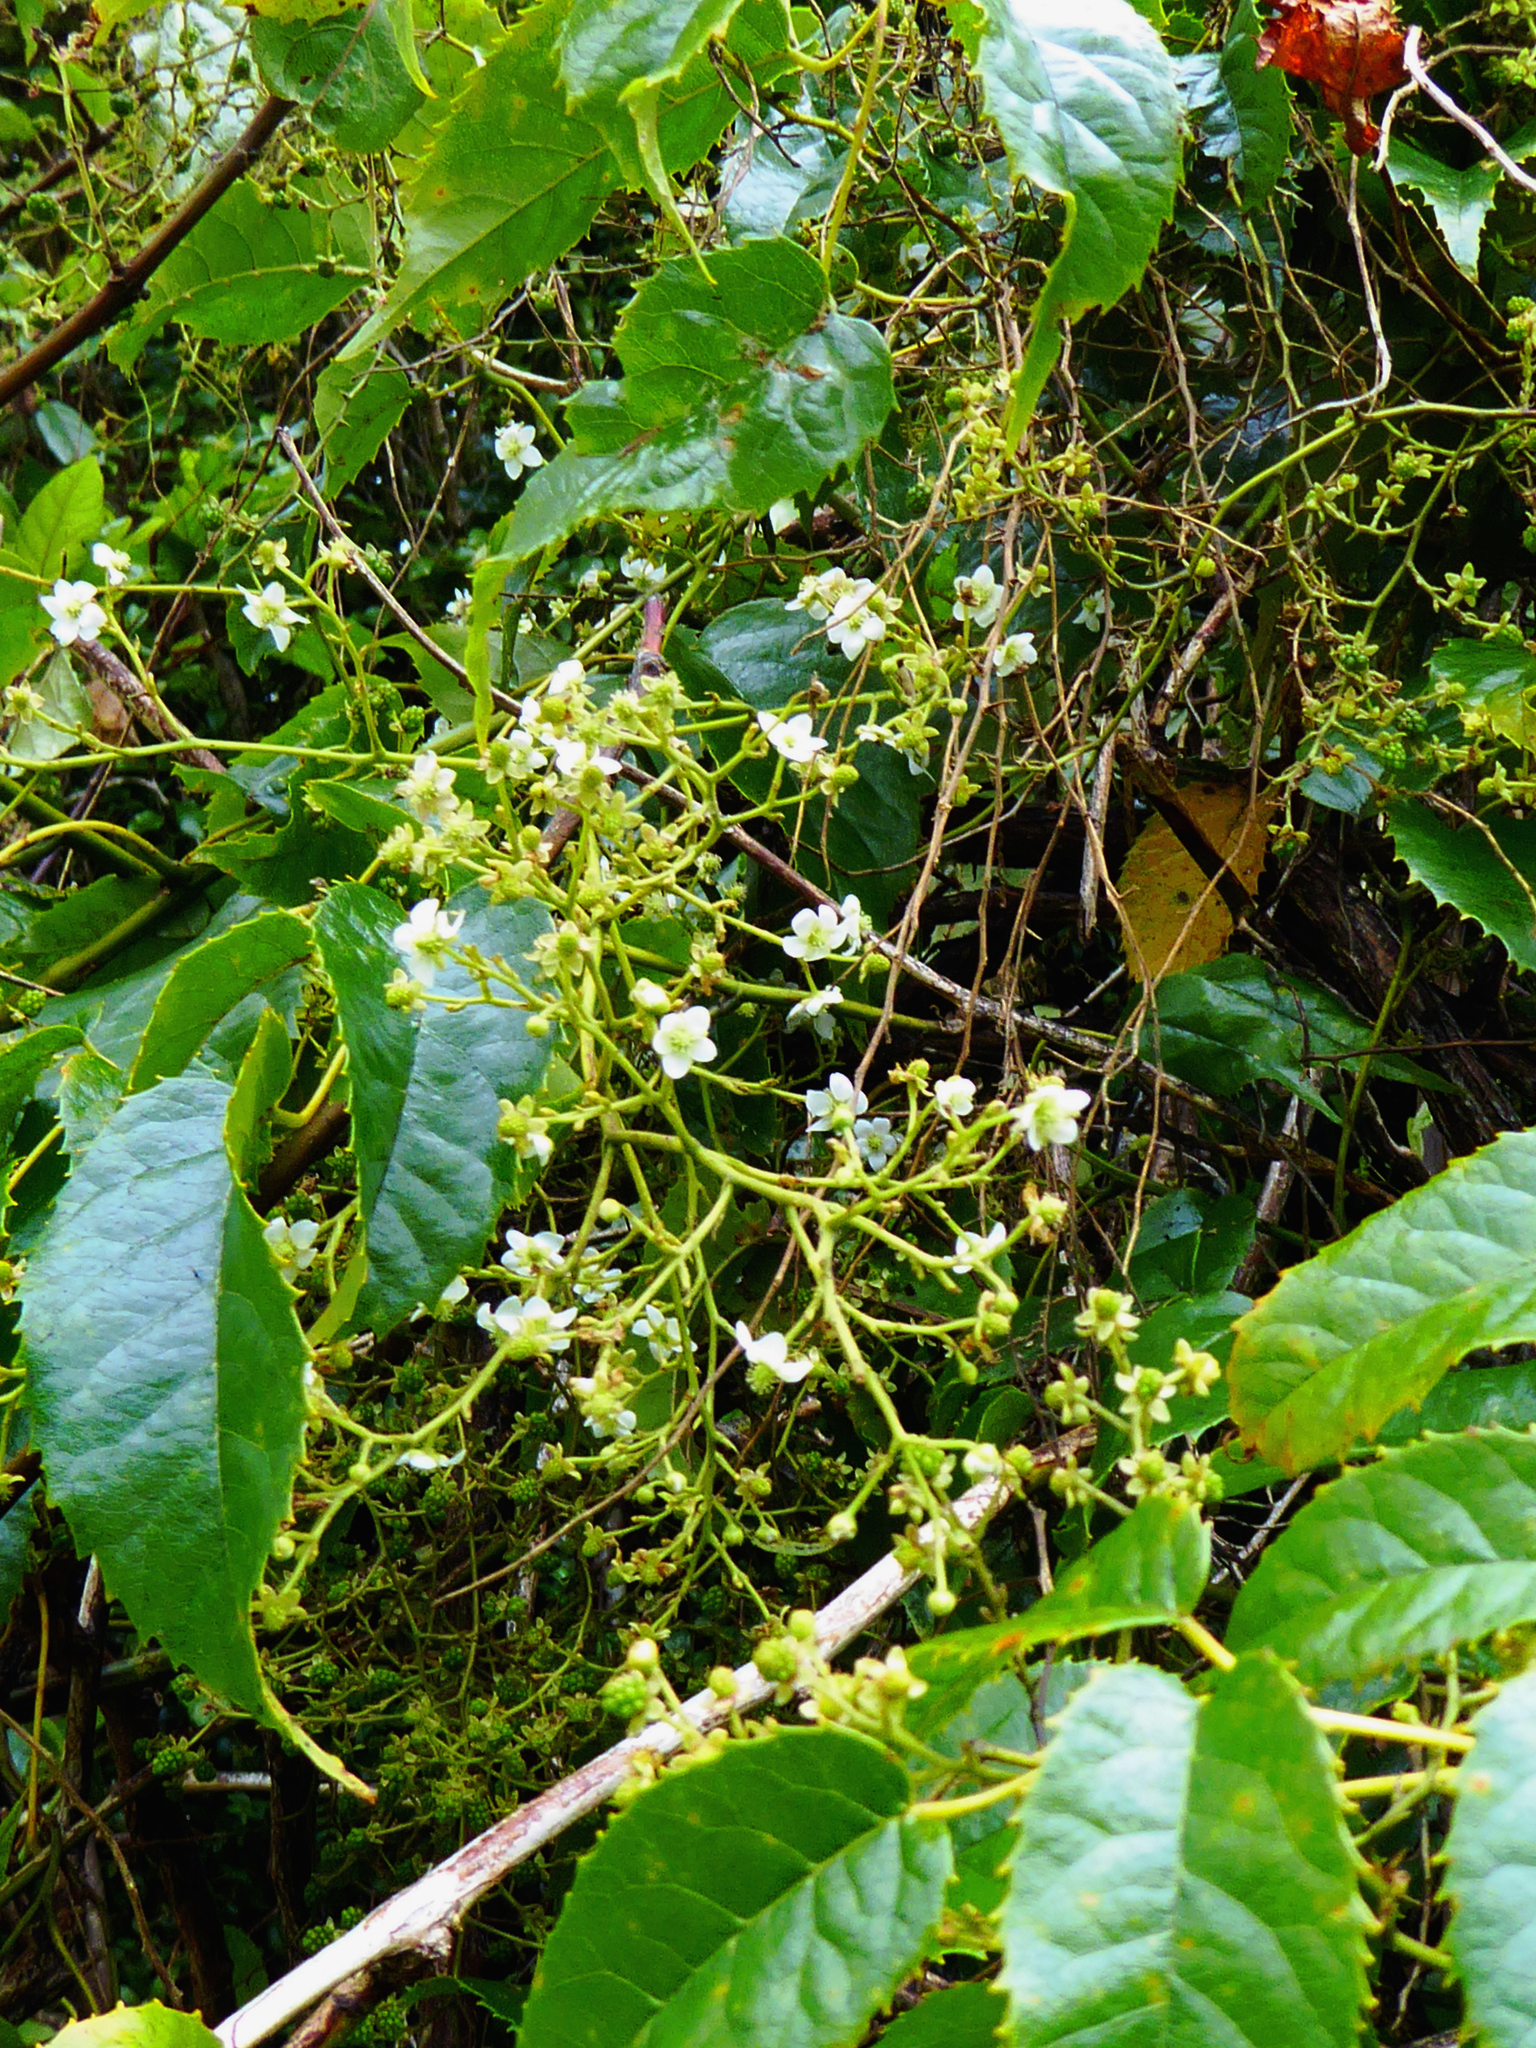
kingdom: Plantae
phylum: Tracheophyta
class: Magnoliopsida
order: Rosales
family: Rosaceae
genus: Rubus
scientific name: Rubus cissoides
